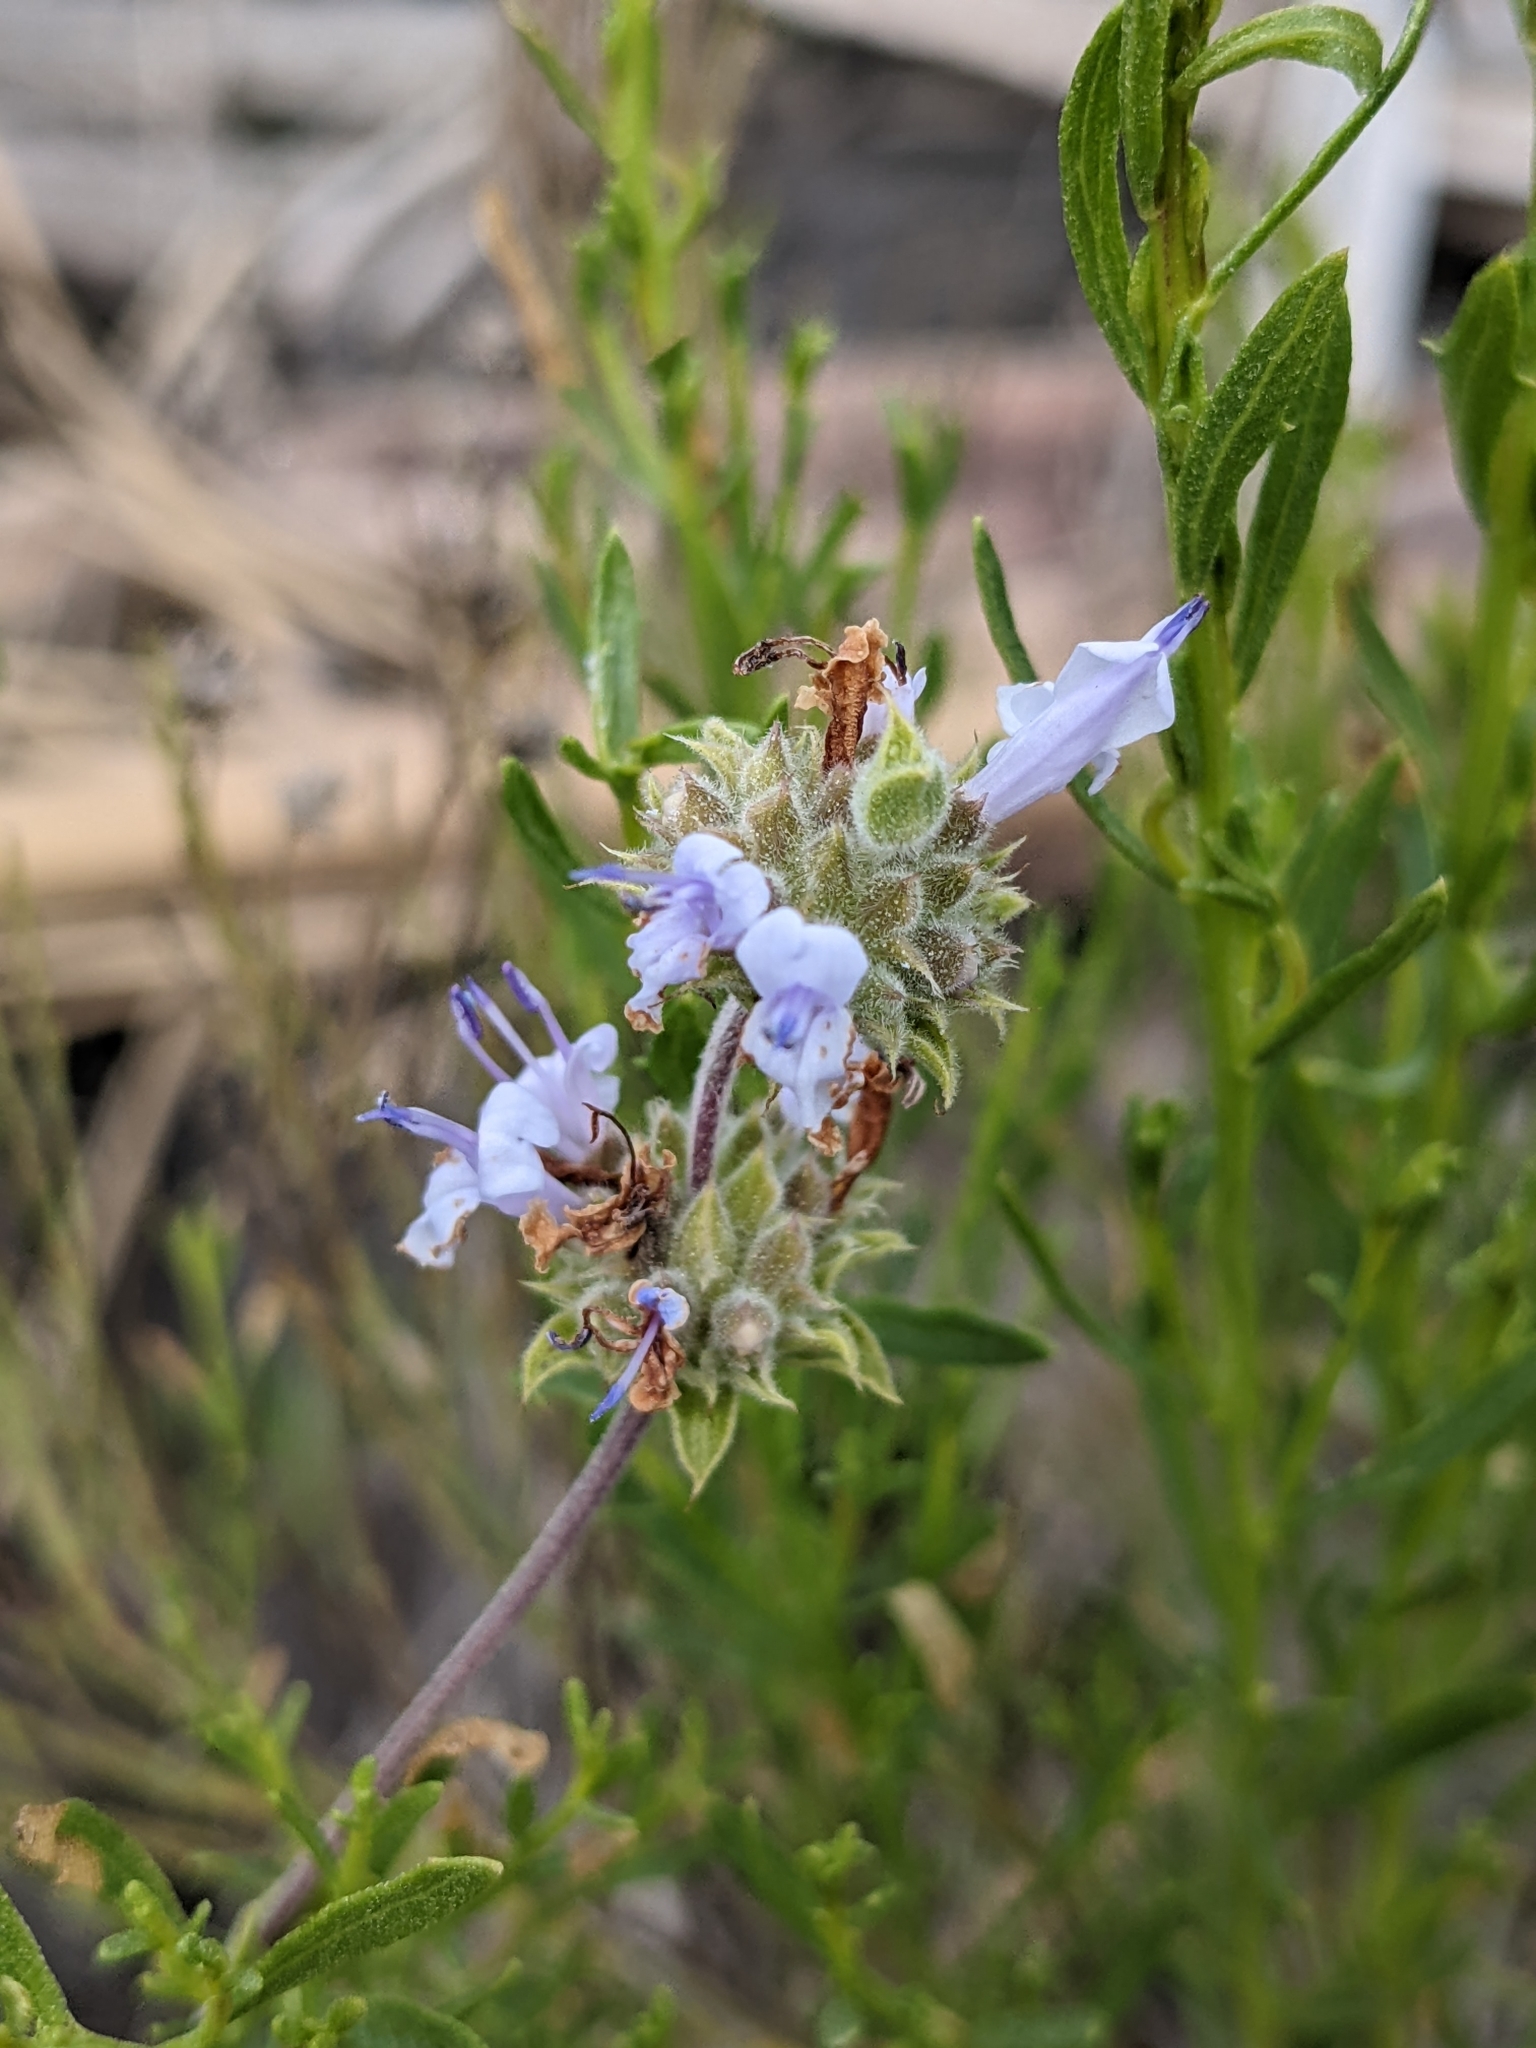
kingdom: Plantae
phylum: Tracheophyta
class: Magnoliopsida
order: Lamiales
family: Lamiaceae
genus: Salvia
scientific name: Salvia mellifera
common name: Black sage
